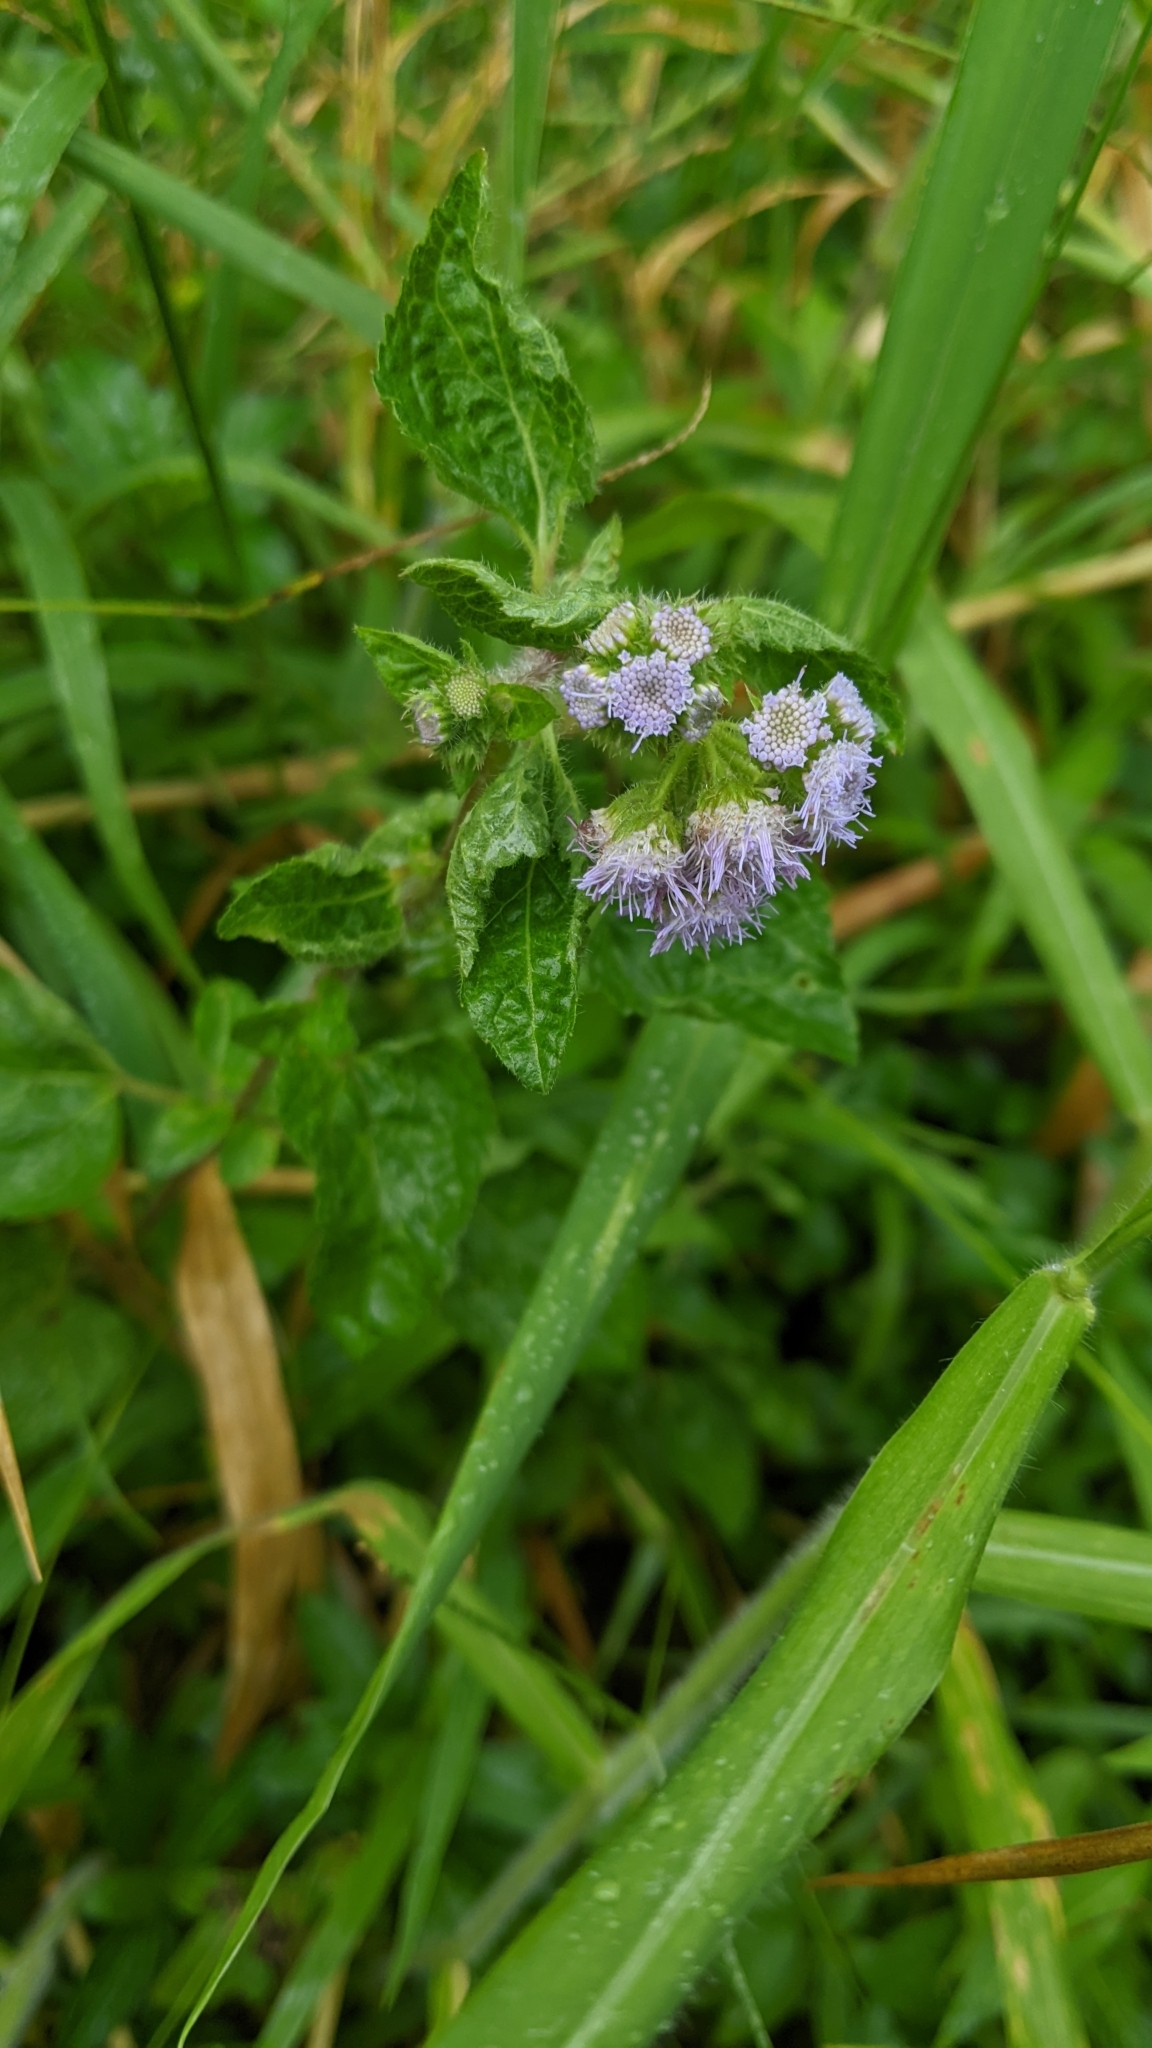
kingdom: Plantae
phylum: Tracheophyta
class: Magnoliopsida
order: Asterales
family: Asteraceae
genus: Ageratum
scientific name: Ageratum houstonianum
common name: Bluemink
